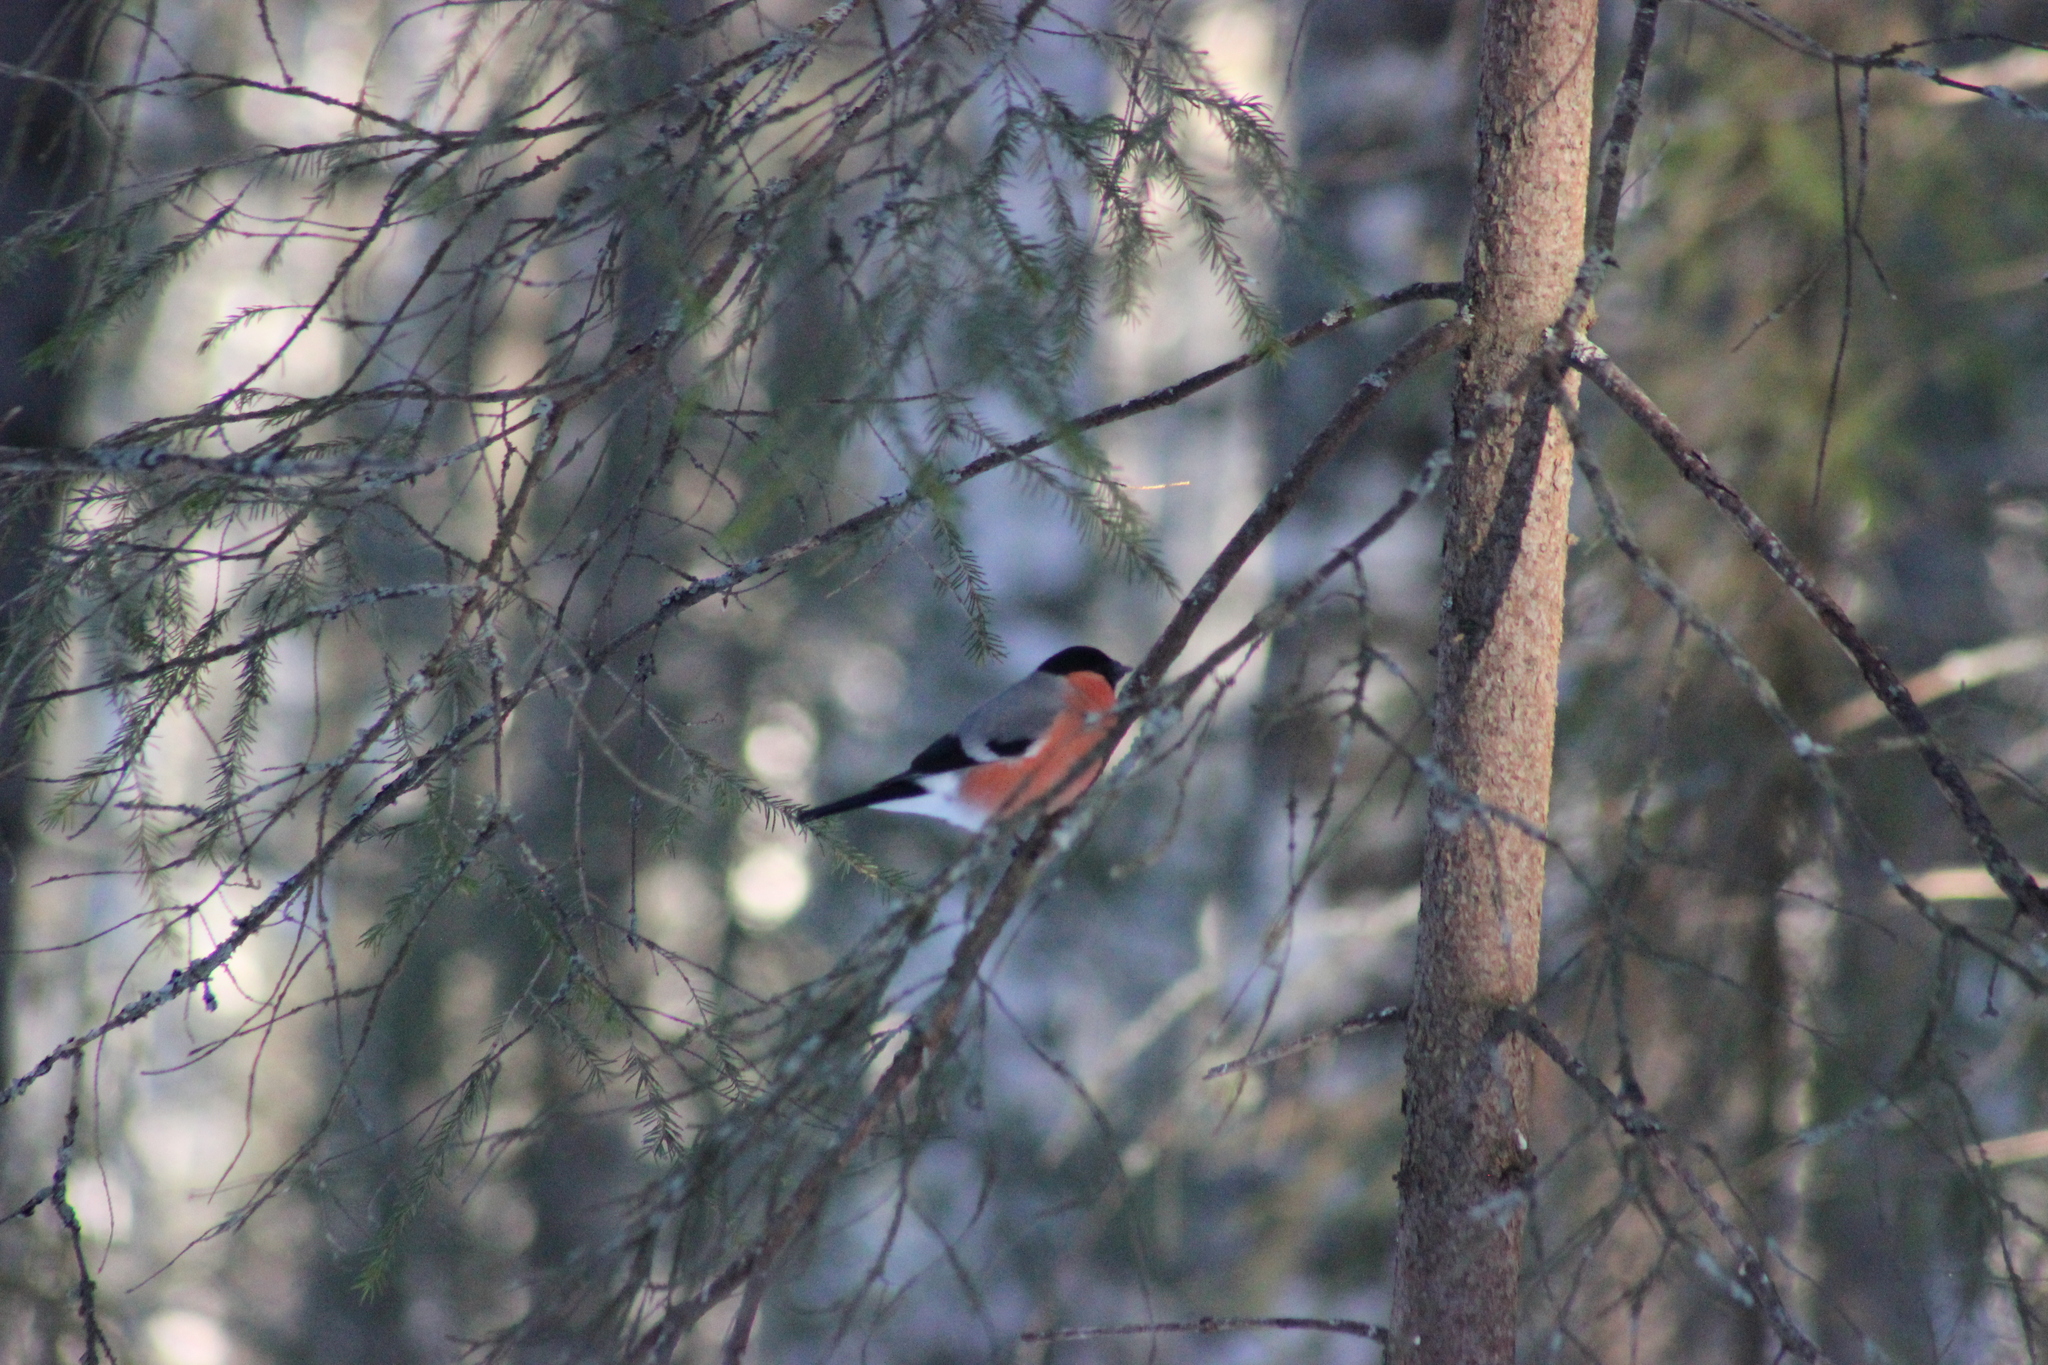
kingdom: Animalia
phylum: Chordata
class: Aves
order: Passeriformes
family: Fringillidae
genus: Pyrrhula
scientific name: Pyrrhula pyrrhula
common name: Eurasian bullfinch
